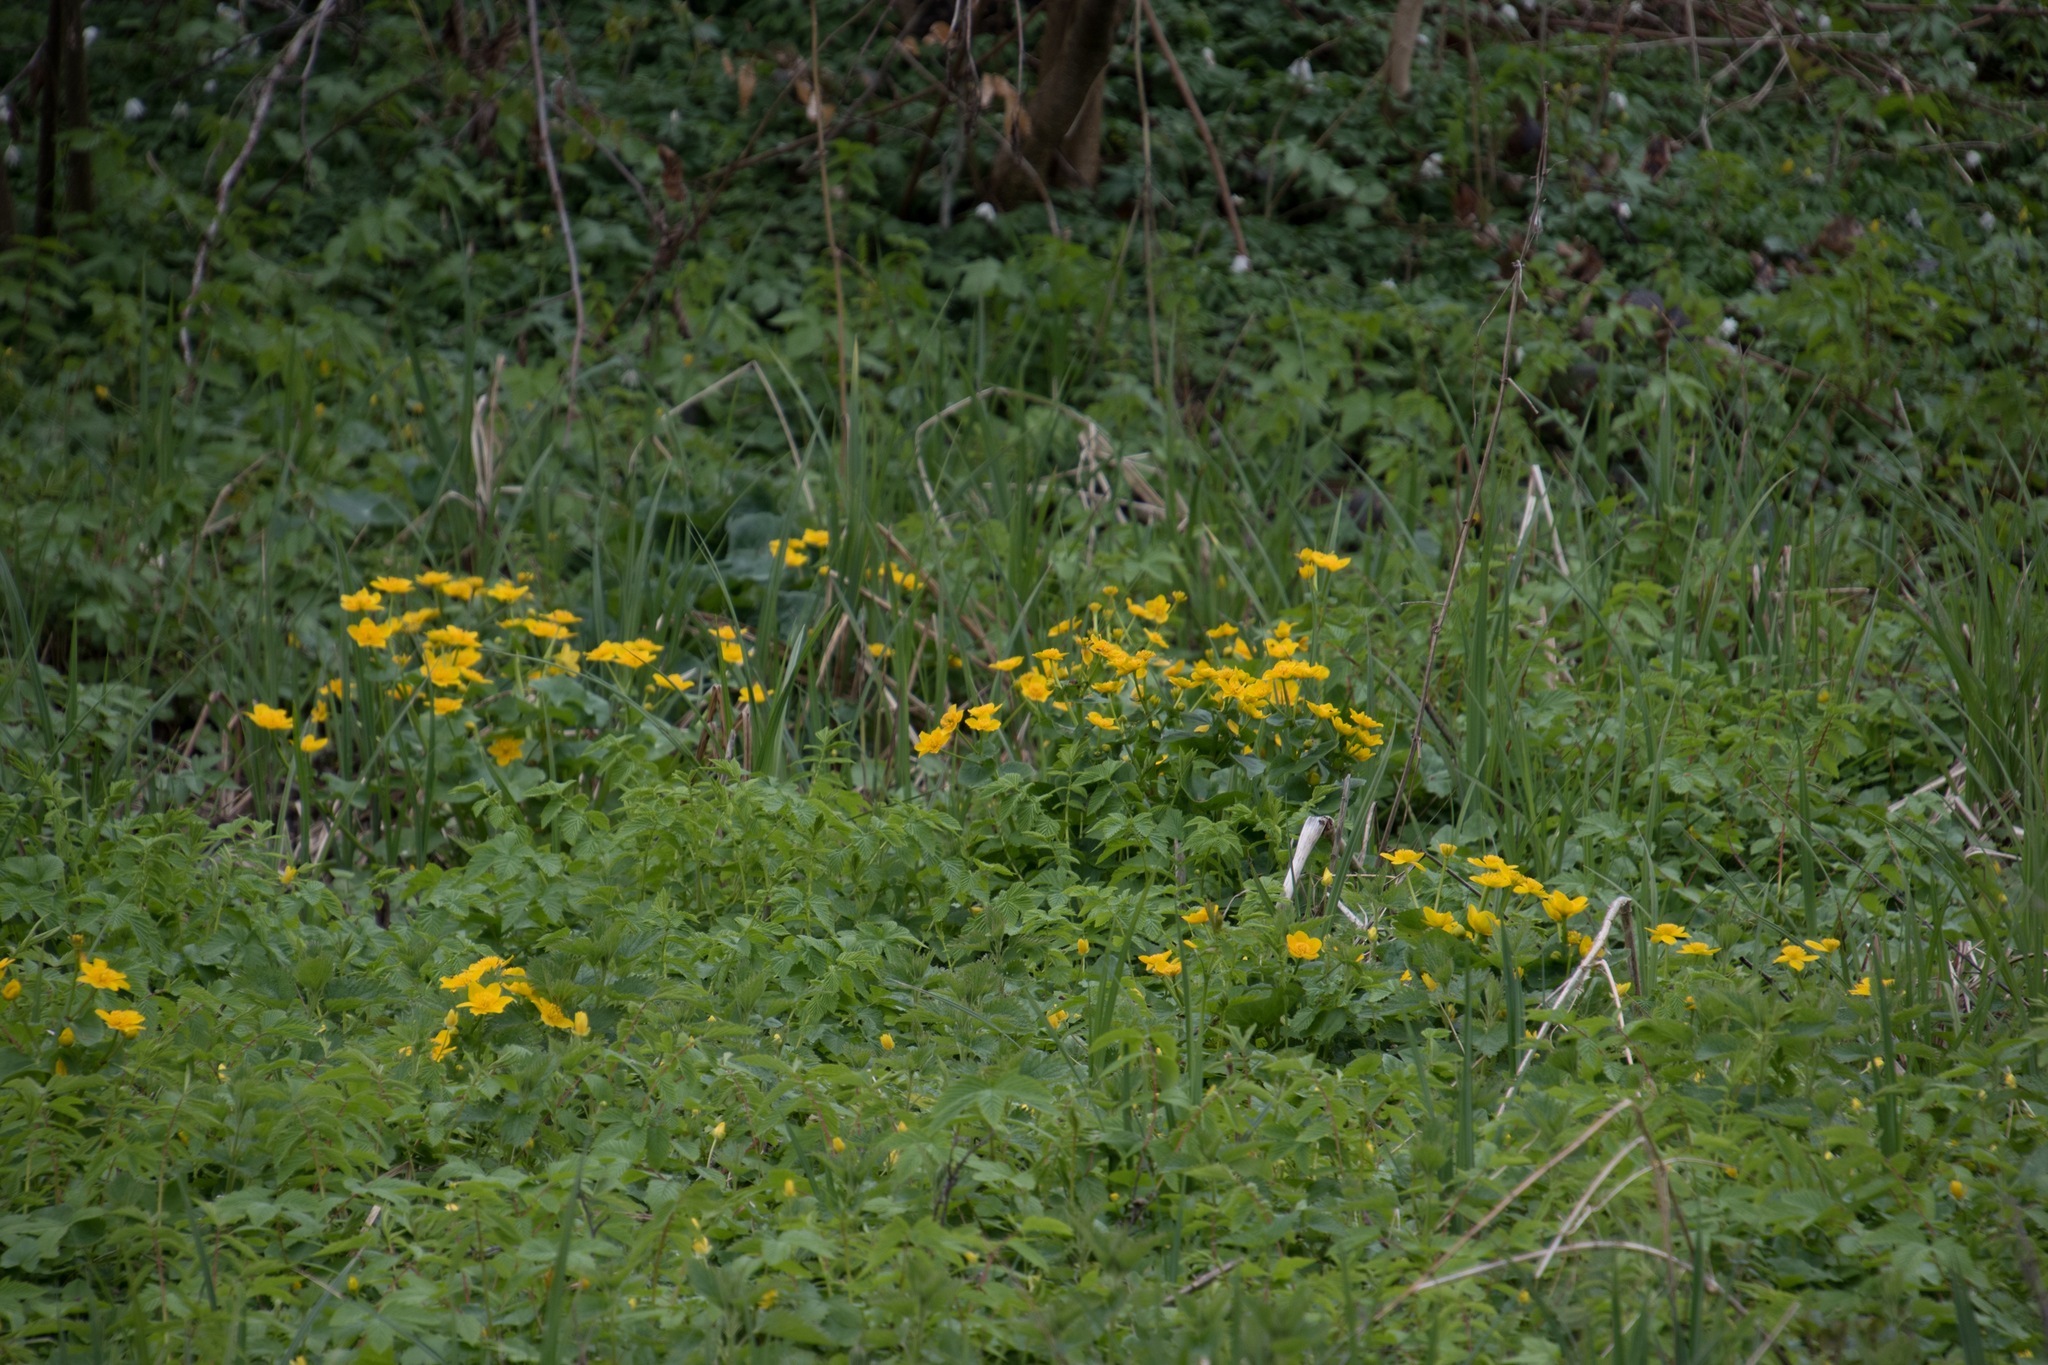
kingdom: Plantae
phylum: Tracheophyta
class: Magnoliopsida
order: Ranunculales
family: Ranunculaceae
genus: Caltha
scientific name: Caltha palustris
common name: Marsh marigold
